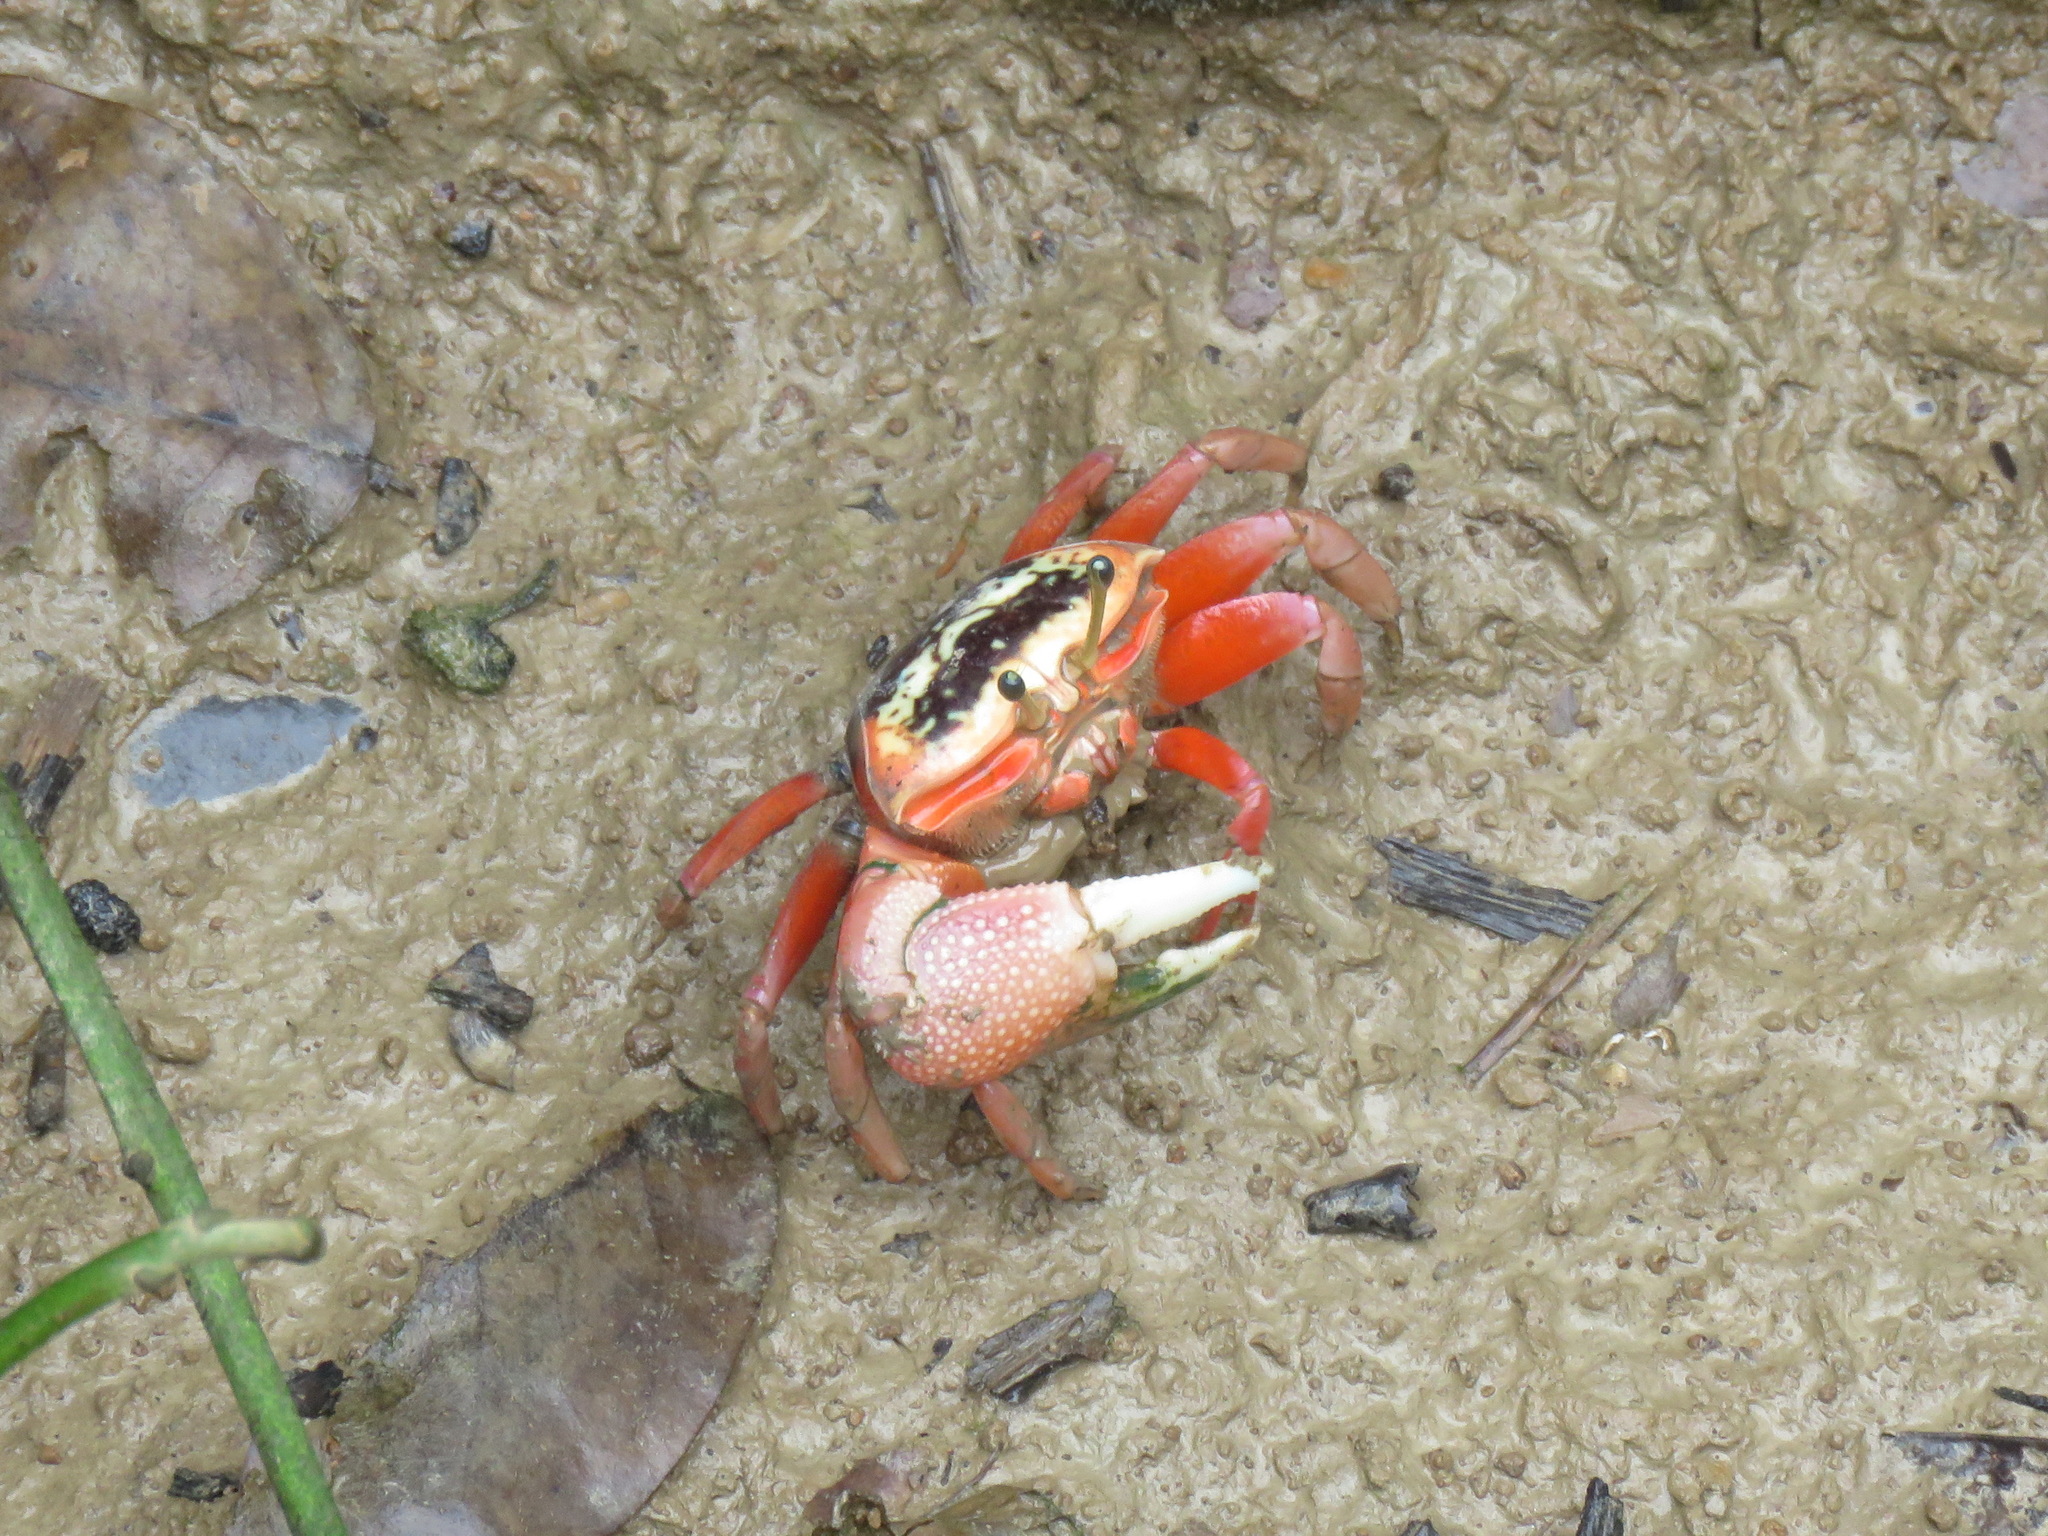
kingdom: Animalia
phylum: Arthropoda
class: Malacostraca
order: Decapoda
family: Ocypodidae
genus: Tubuca
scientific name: Tubuca arcuata
